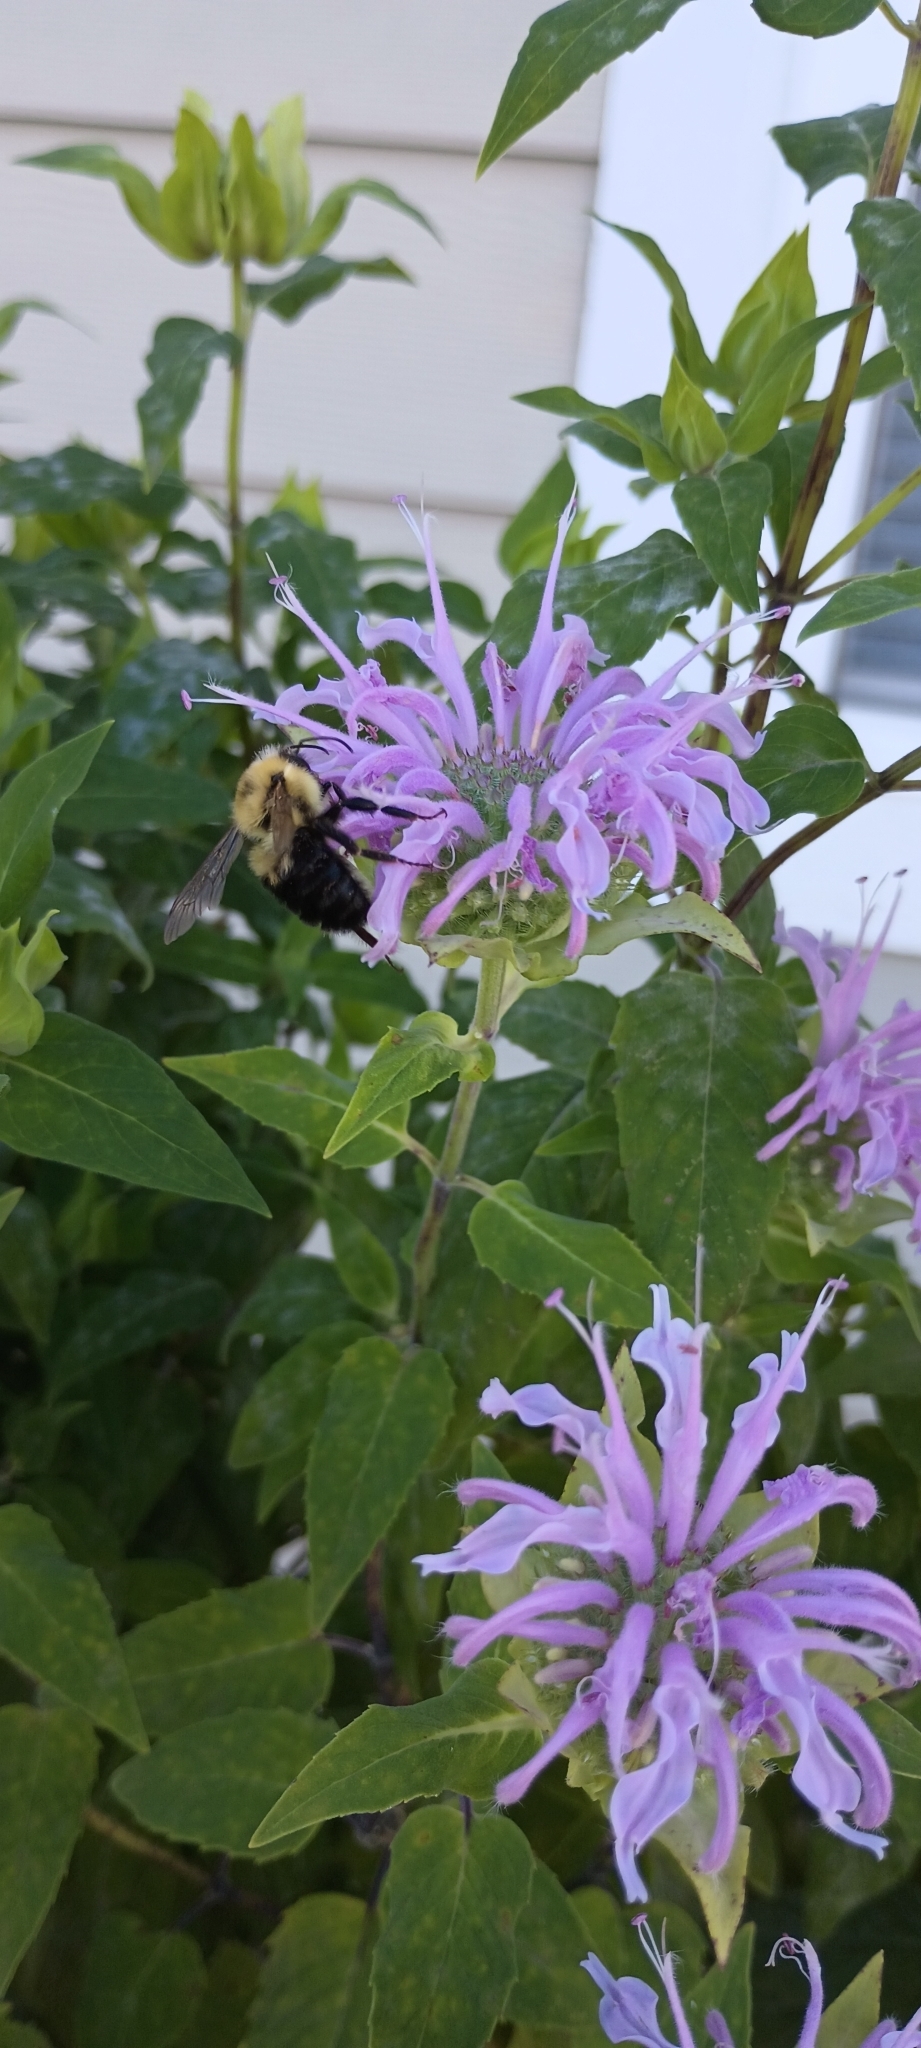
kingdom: Animalia
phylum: Arthropoda
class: Insecta
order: Hymenoptera
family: Apidae
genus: Bombus
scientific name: Bombus bimaculatus
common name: Two-spotted bumble bee
